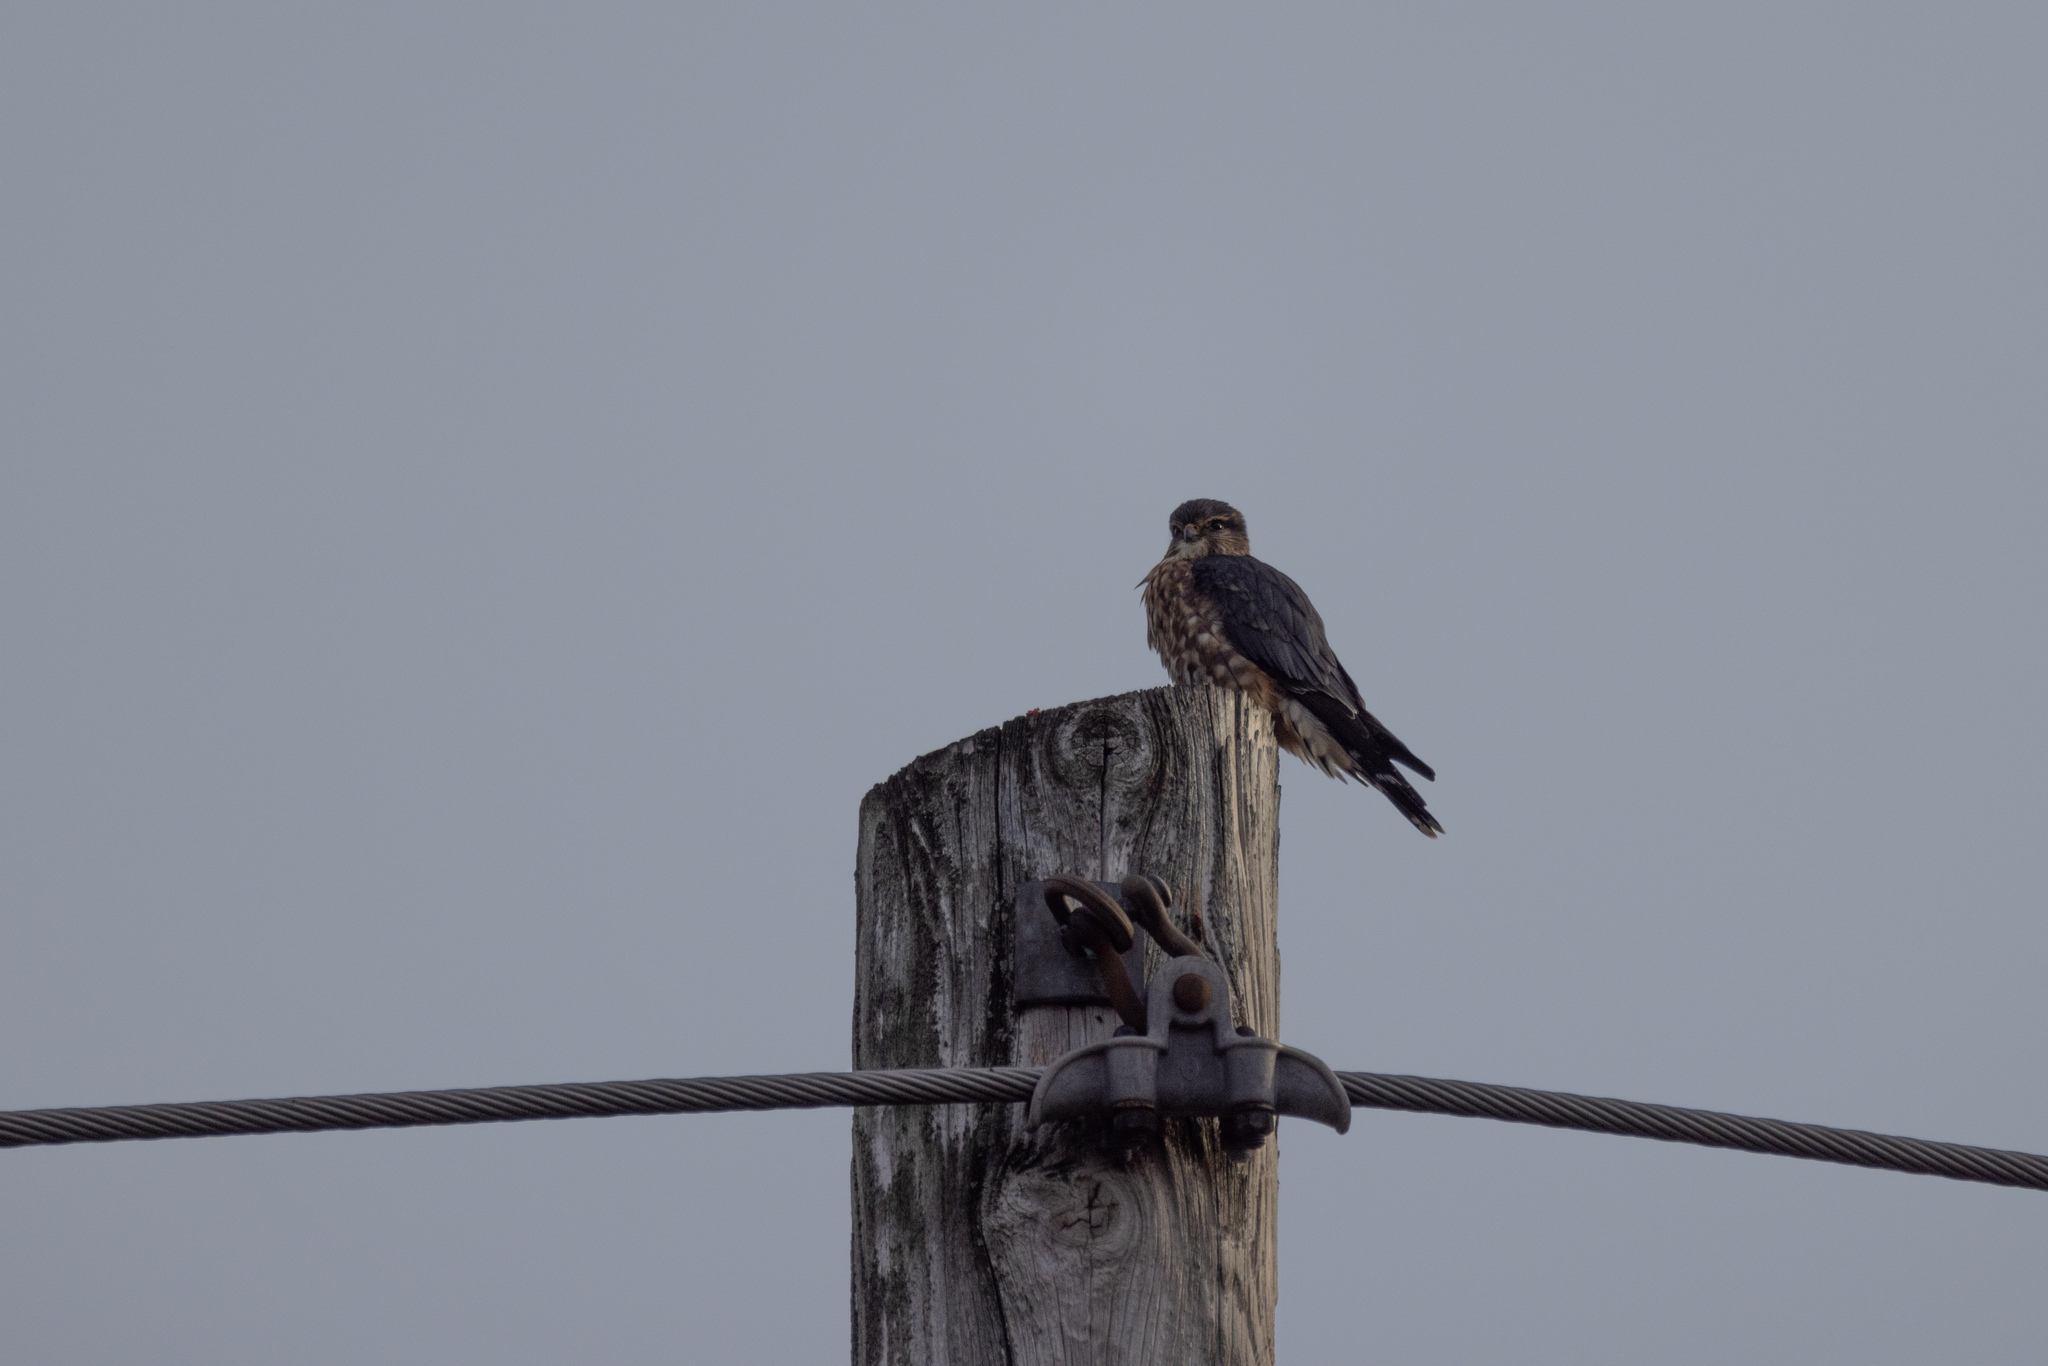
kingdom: Animalia
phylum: Chordata
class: Aves
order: Falconiformes
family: Falconidae
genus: Falco
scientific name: Falco columbarius
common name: Merlin
